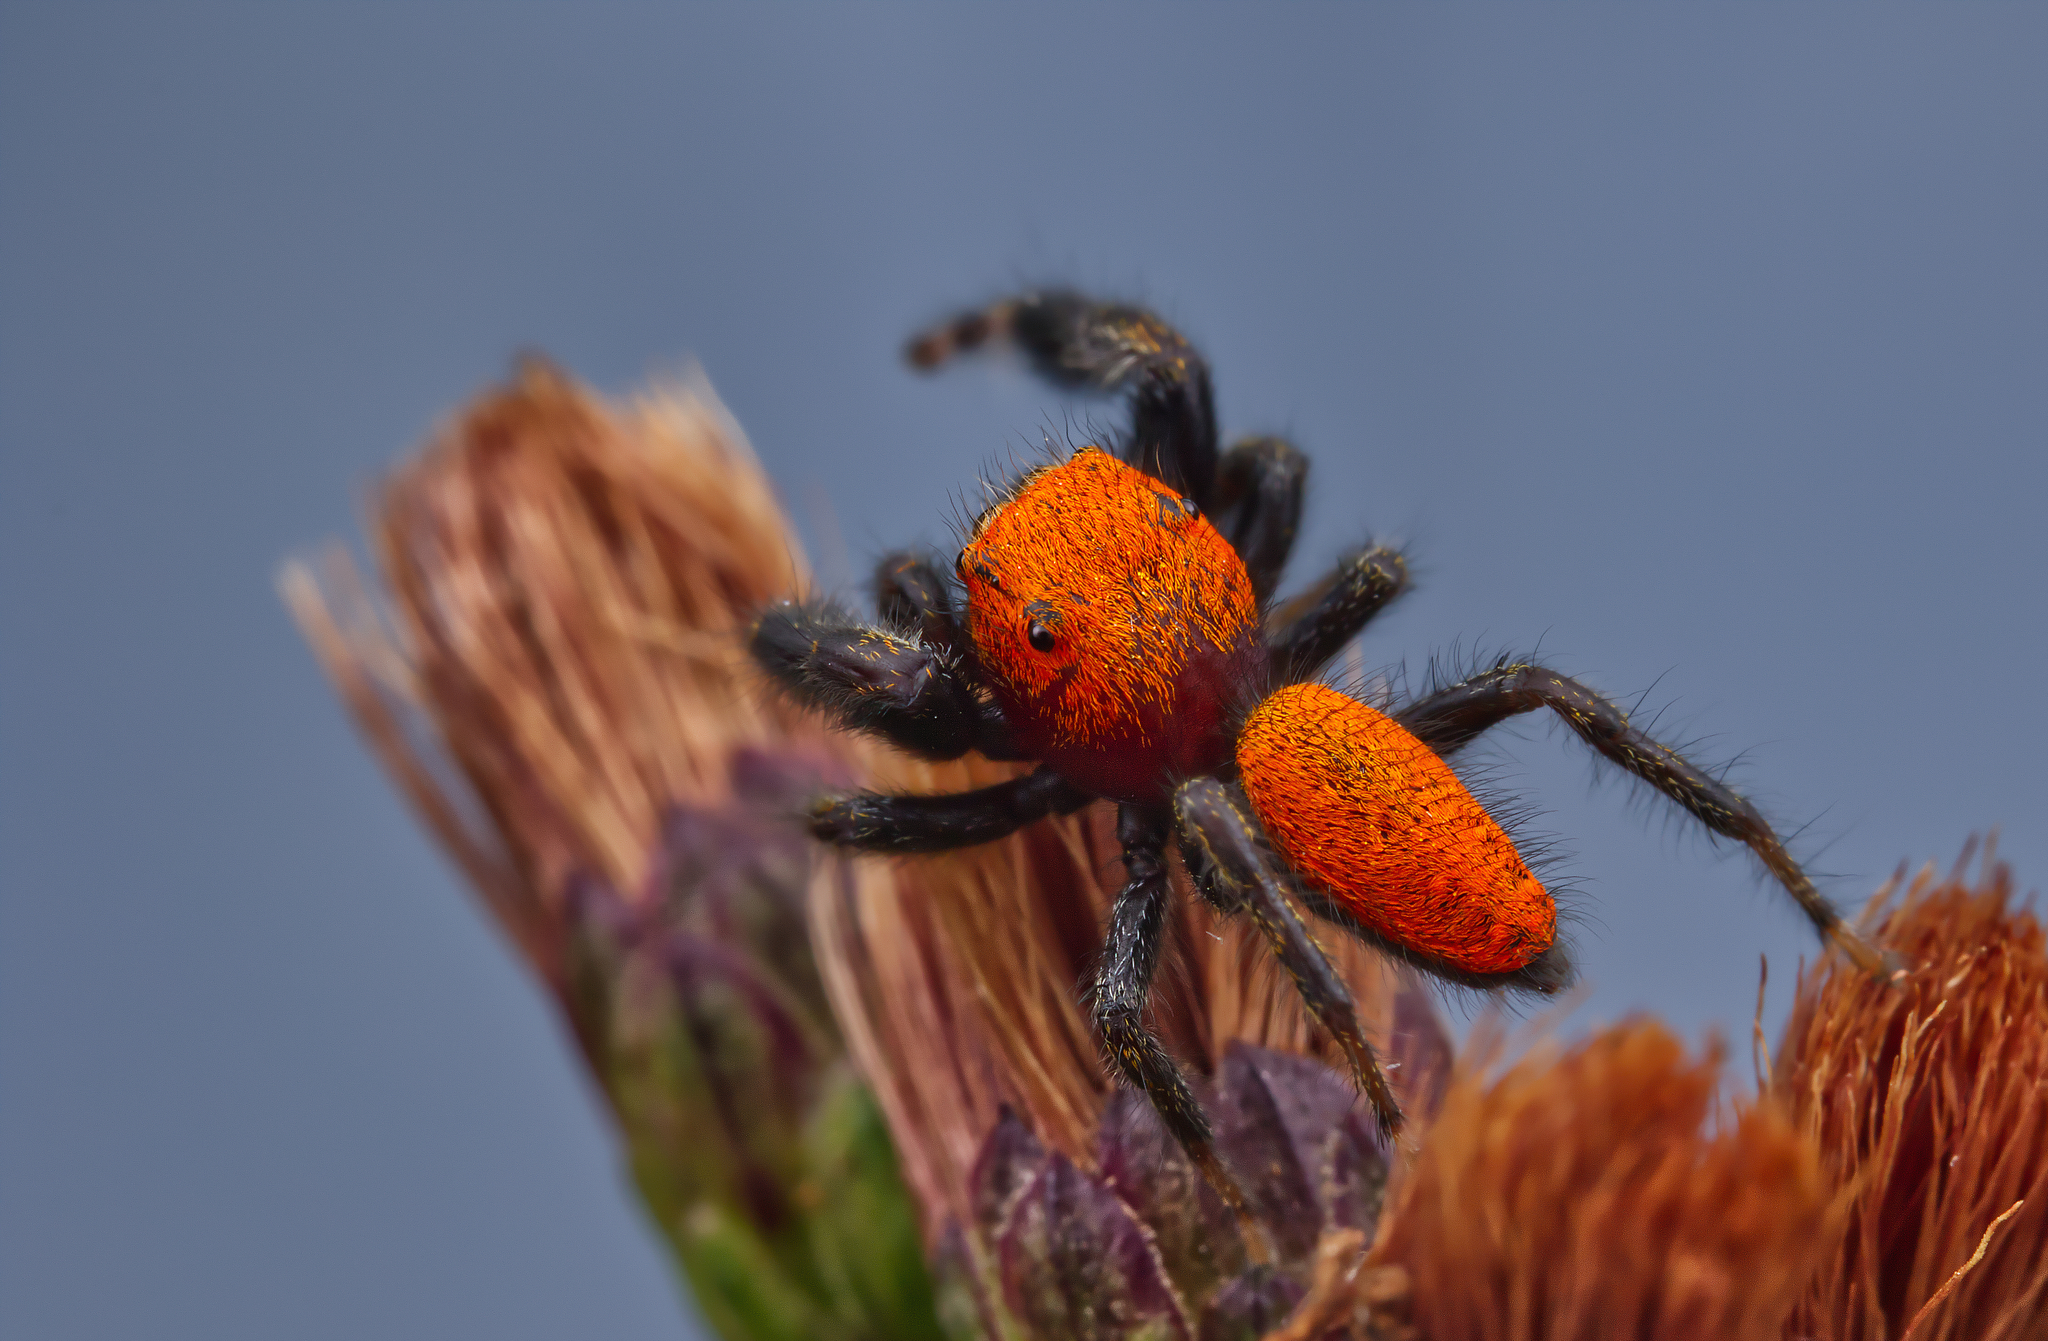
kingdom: Animalia
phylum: Arthropoda
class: Arachnida
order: Araneae
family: Salticidae
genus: Phidippus
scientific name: Phidippus cardinalis
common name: Cardinal jumper
